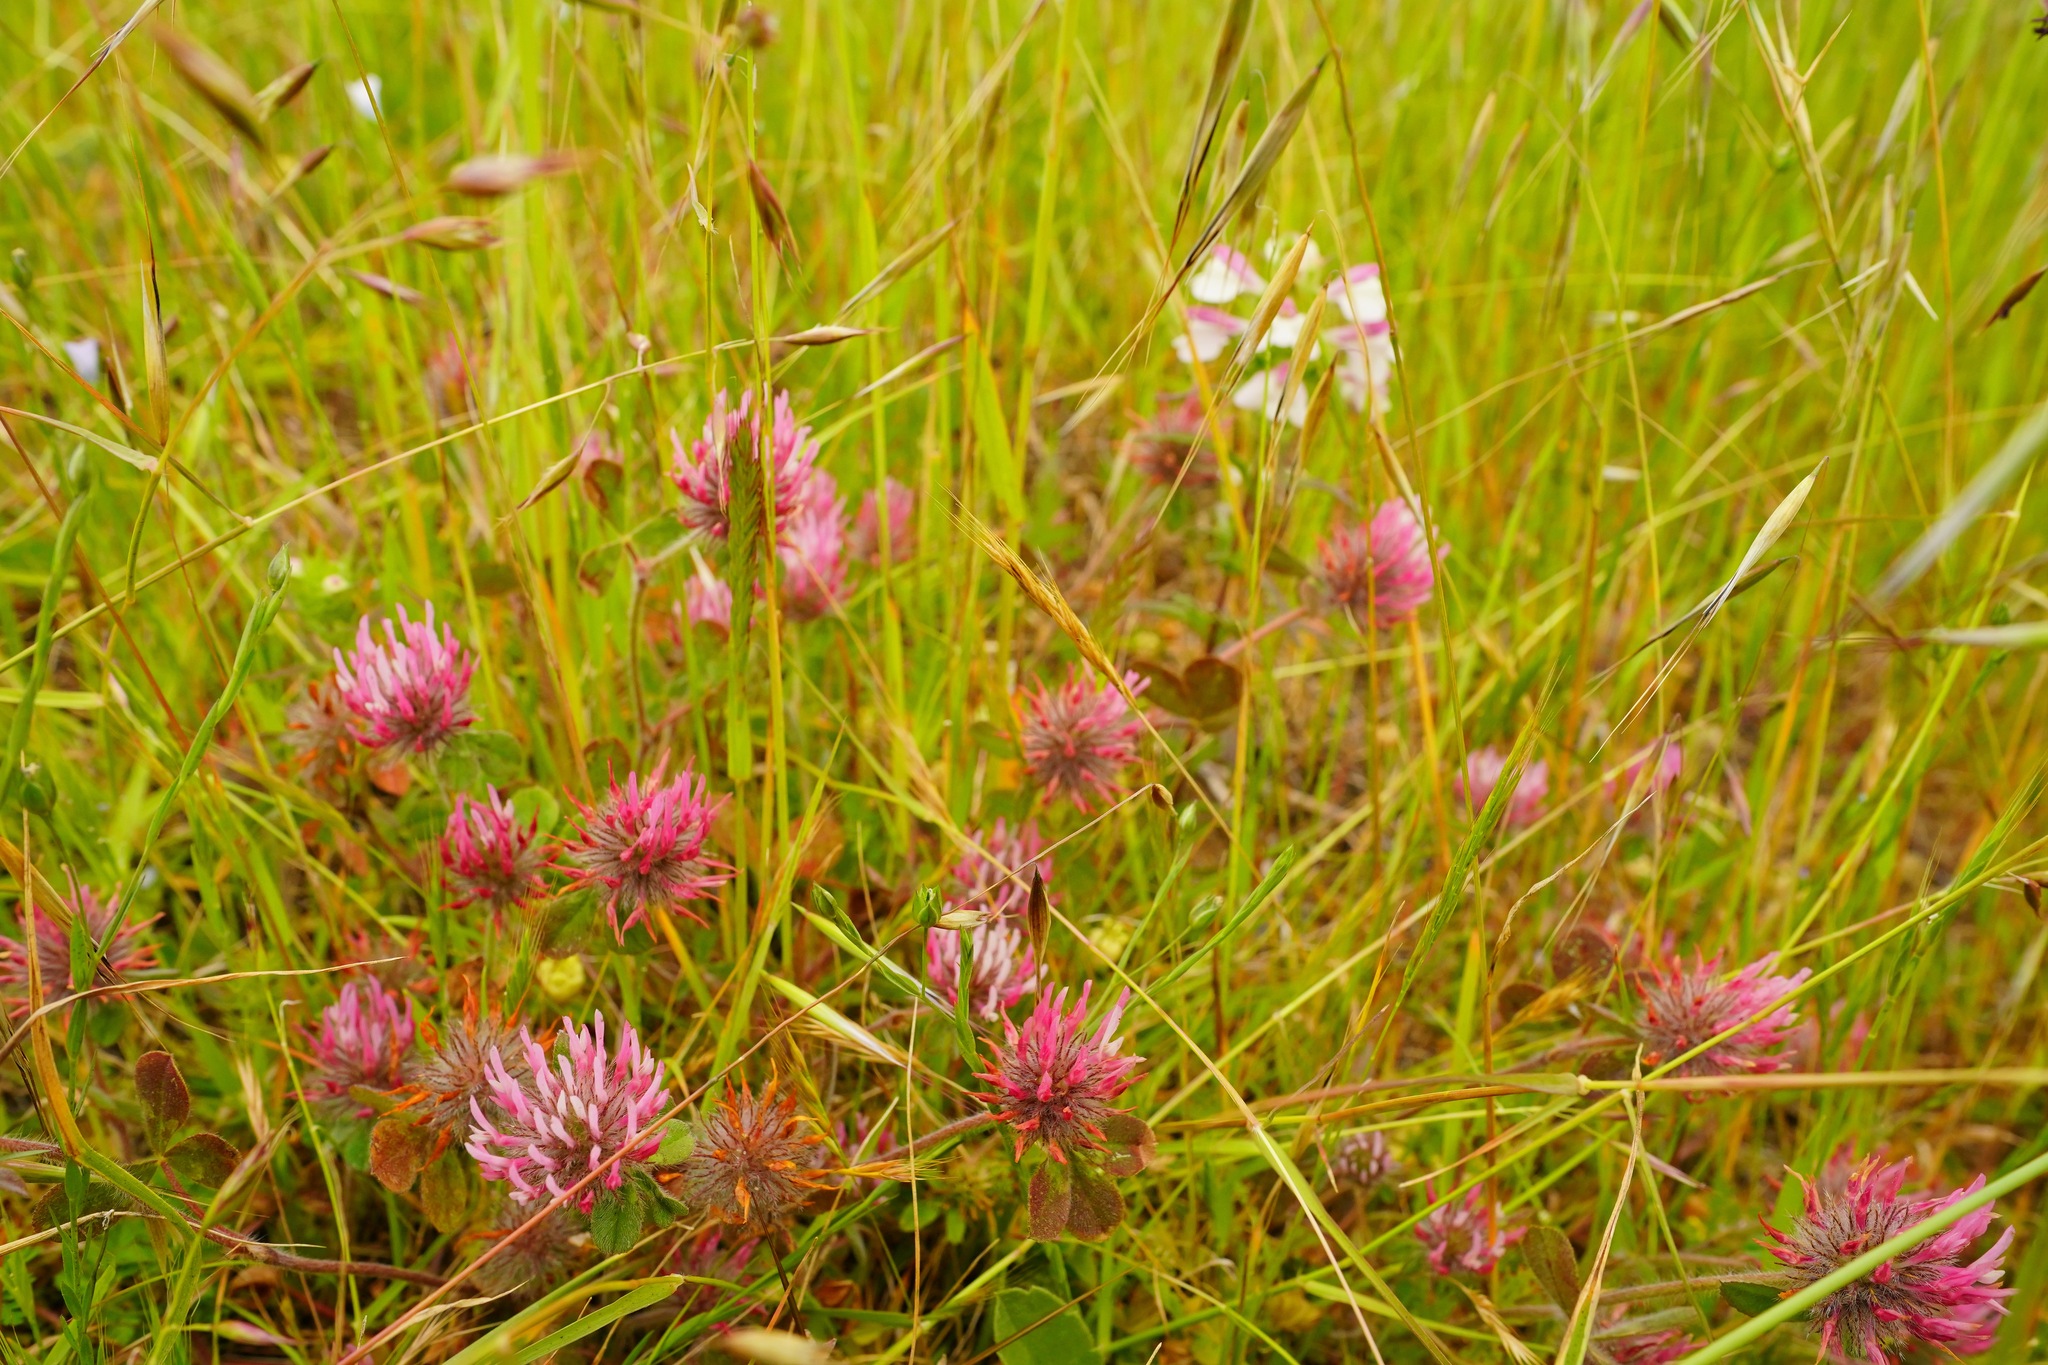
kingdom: Plantae
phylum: Tracheophyta
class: Magnoliopsida
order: Fabales
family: Fabaceae
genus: Trifolium
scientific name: Trifolium hirtum
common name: Rose clover
